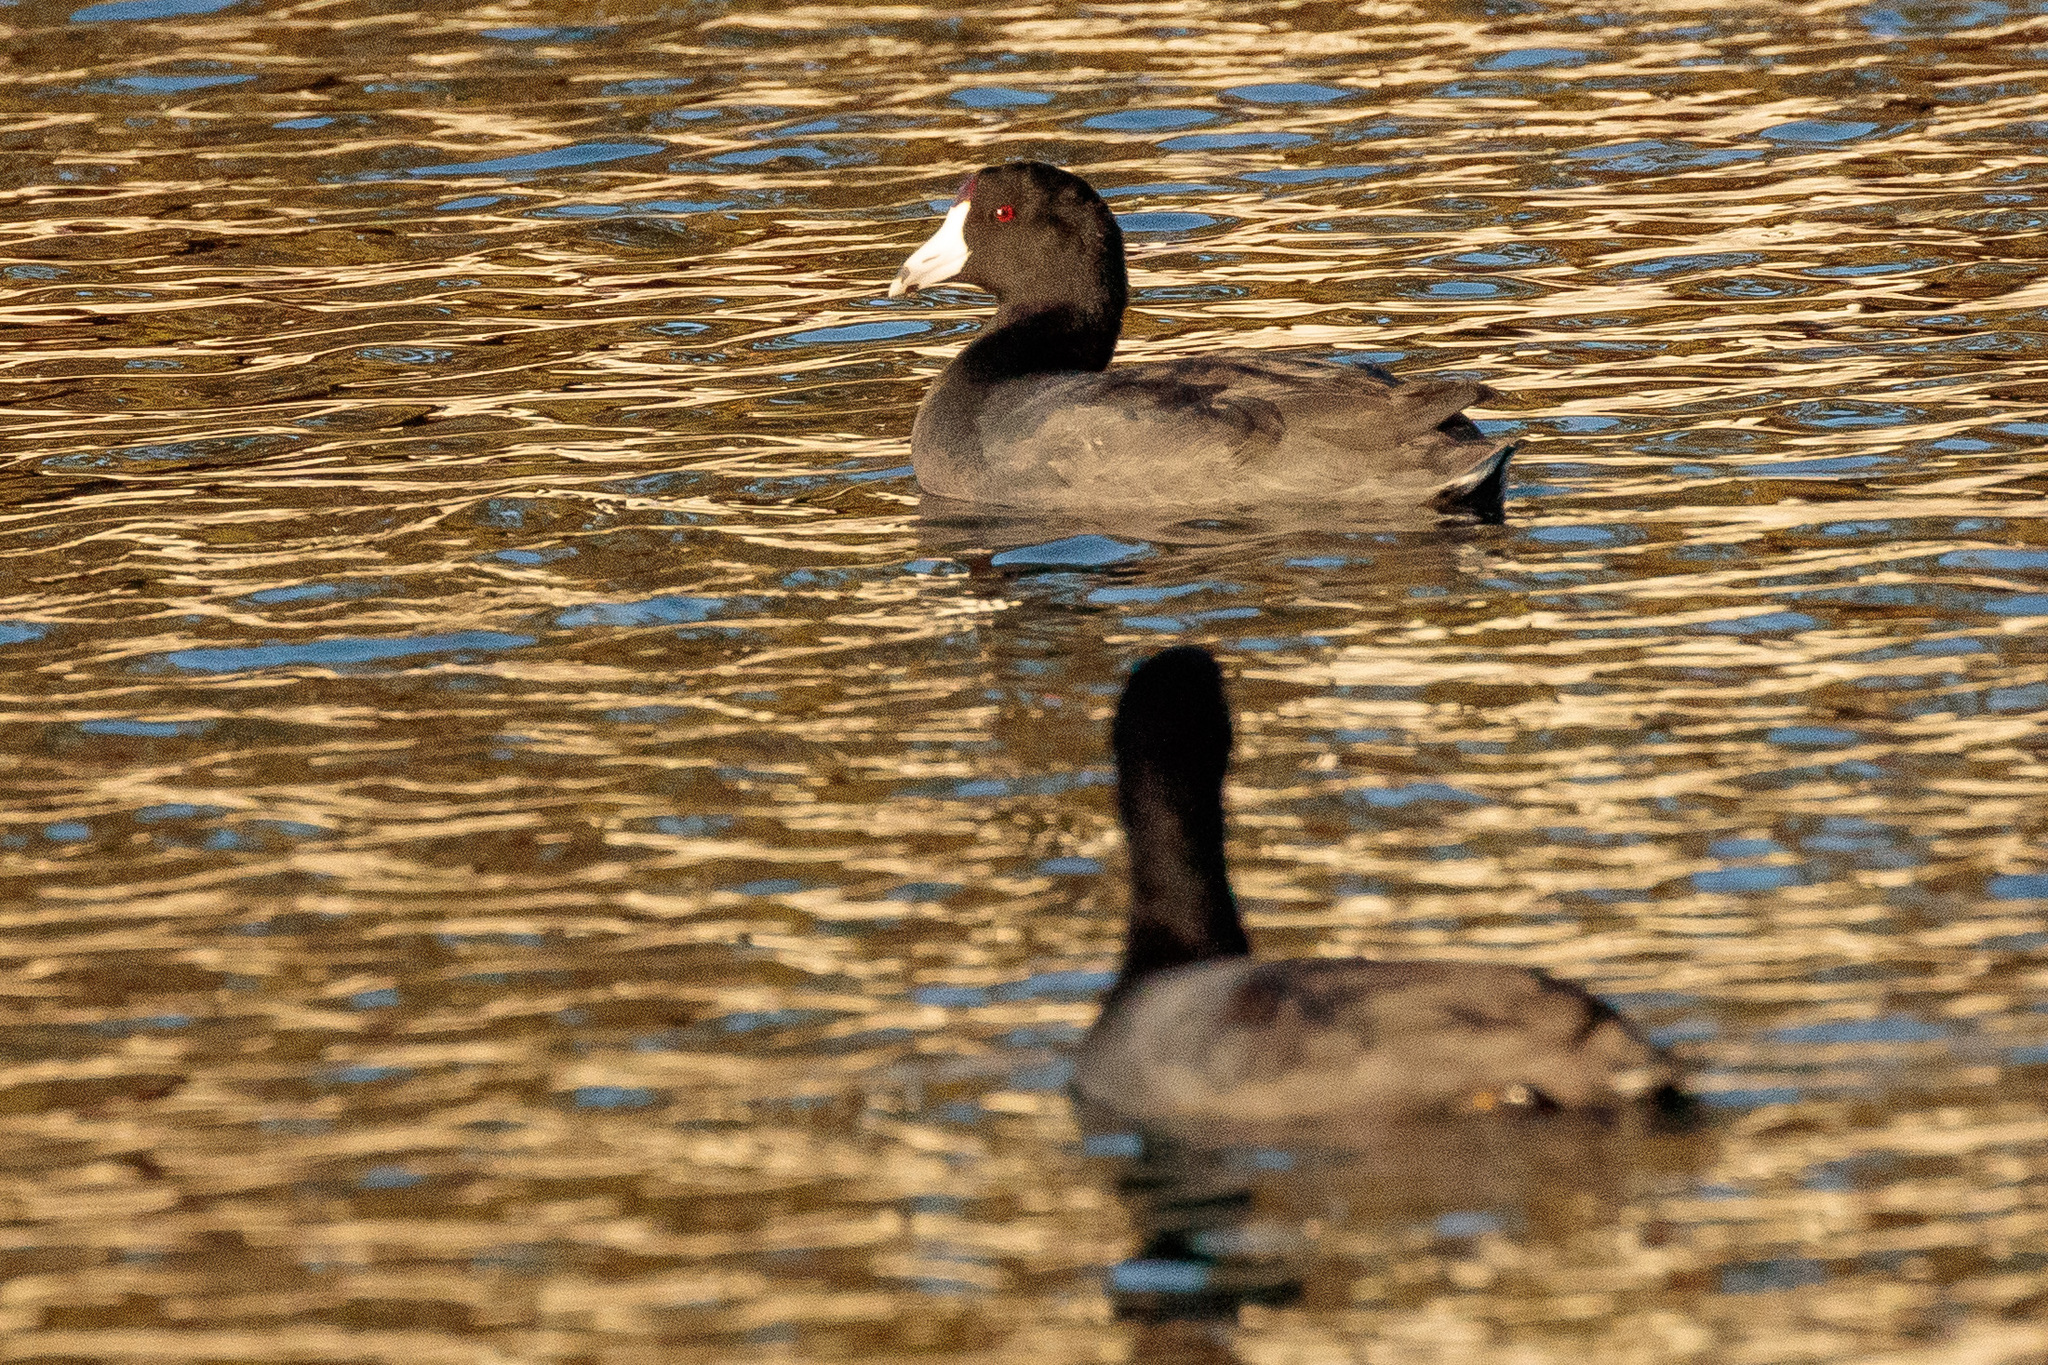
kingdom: Animalia
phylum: Chordata
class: Aves
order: Gruiformes
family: Rallidae
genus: Fulica
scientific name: Fulica americana
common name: American coot
